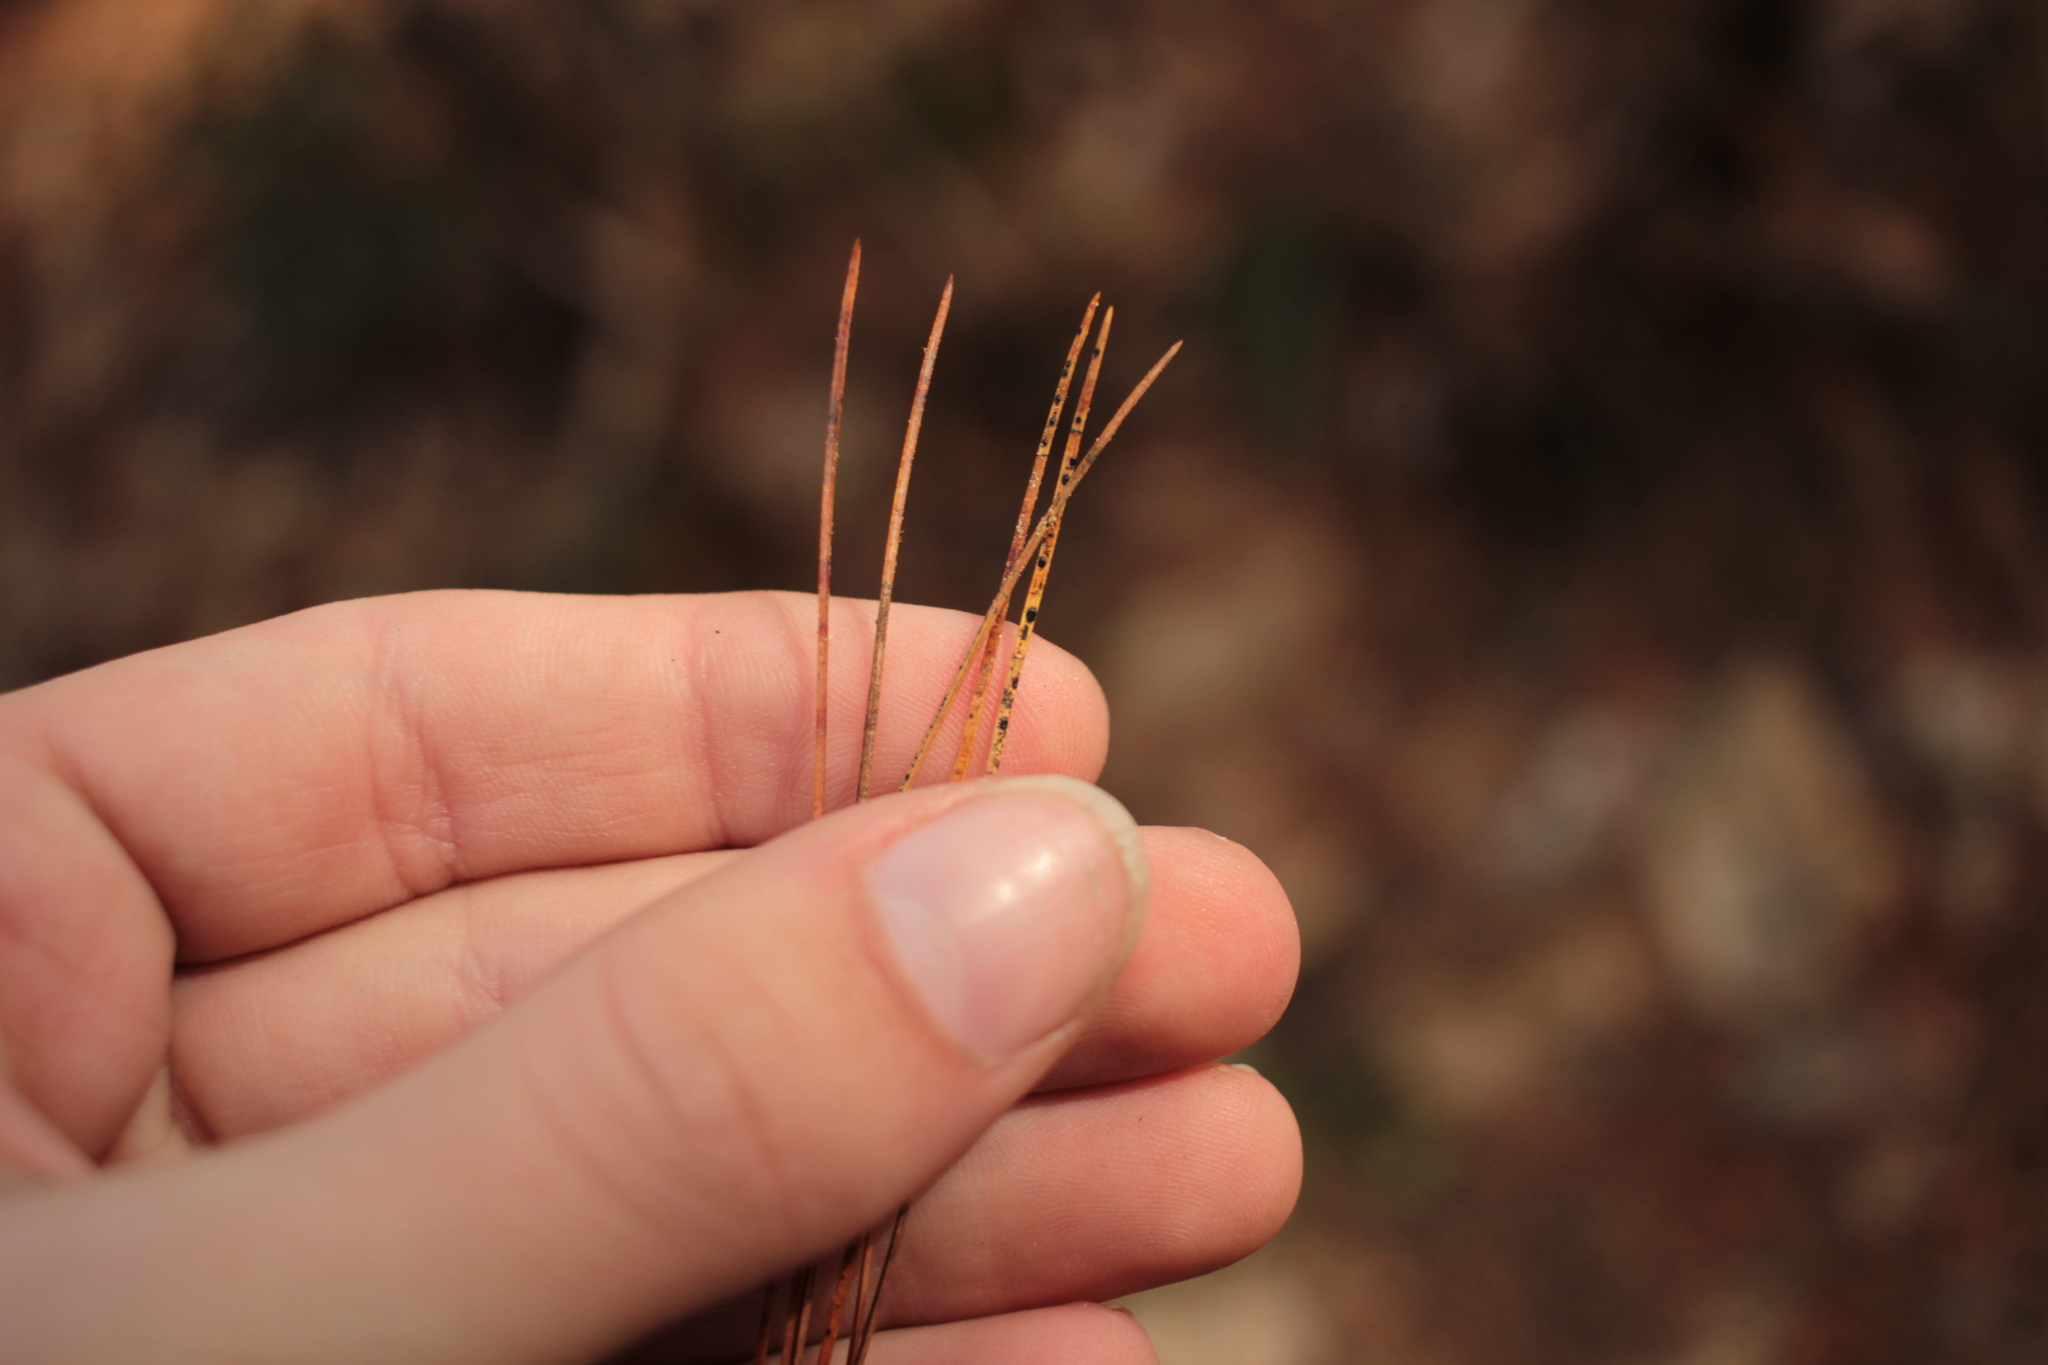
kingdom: Plantae
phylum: Tracheophyta
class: Pinopsida
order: Pinales
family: Pinaceae
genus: Pinus
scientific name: Pinus strobus
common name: Weymouth pine
